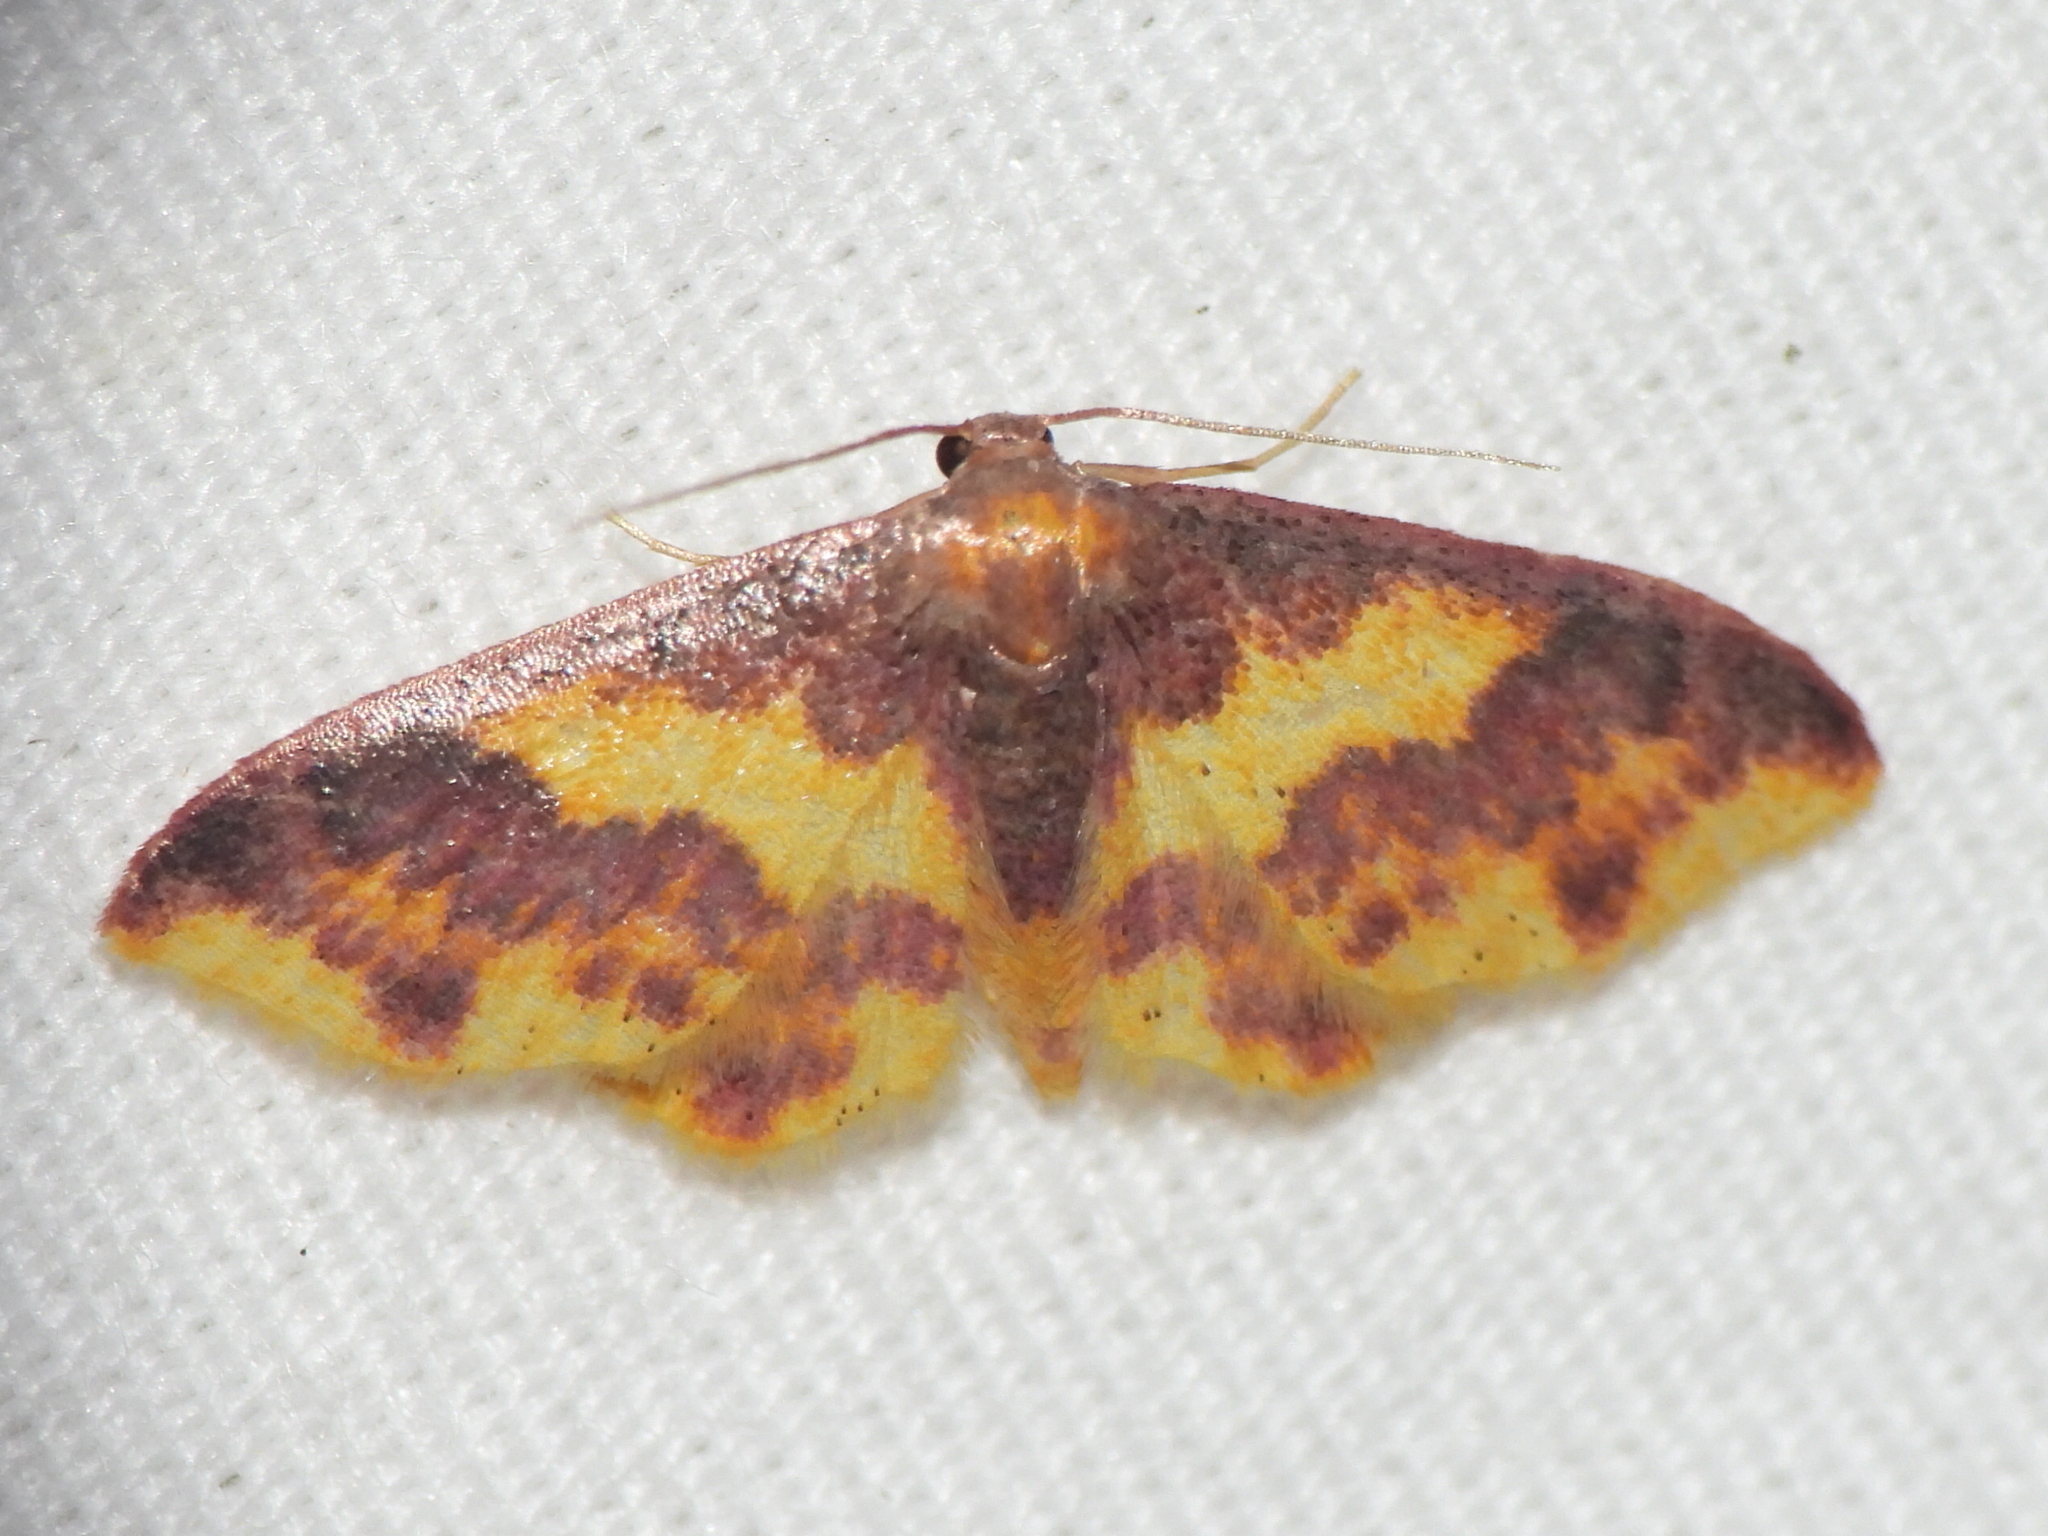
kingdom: Animalia
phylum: Arthropoda
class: Insecta
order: Lepidoptera
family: Geometridae
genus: Lophosis
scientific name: Lophosis labeculata
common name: Stained lophosis moth
